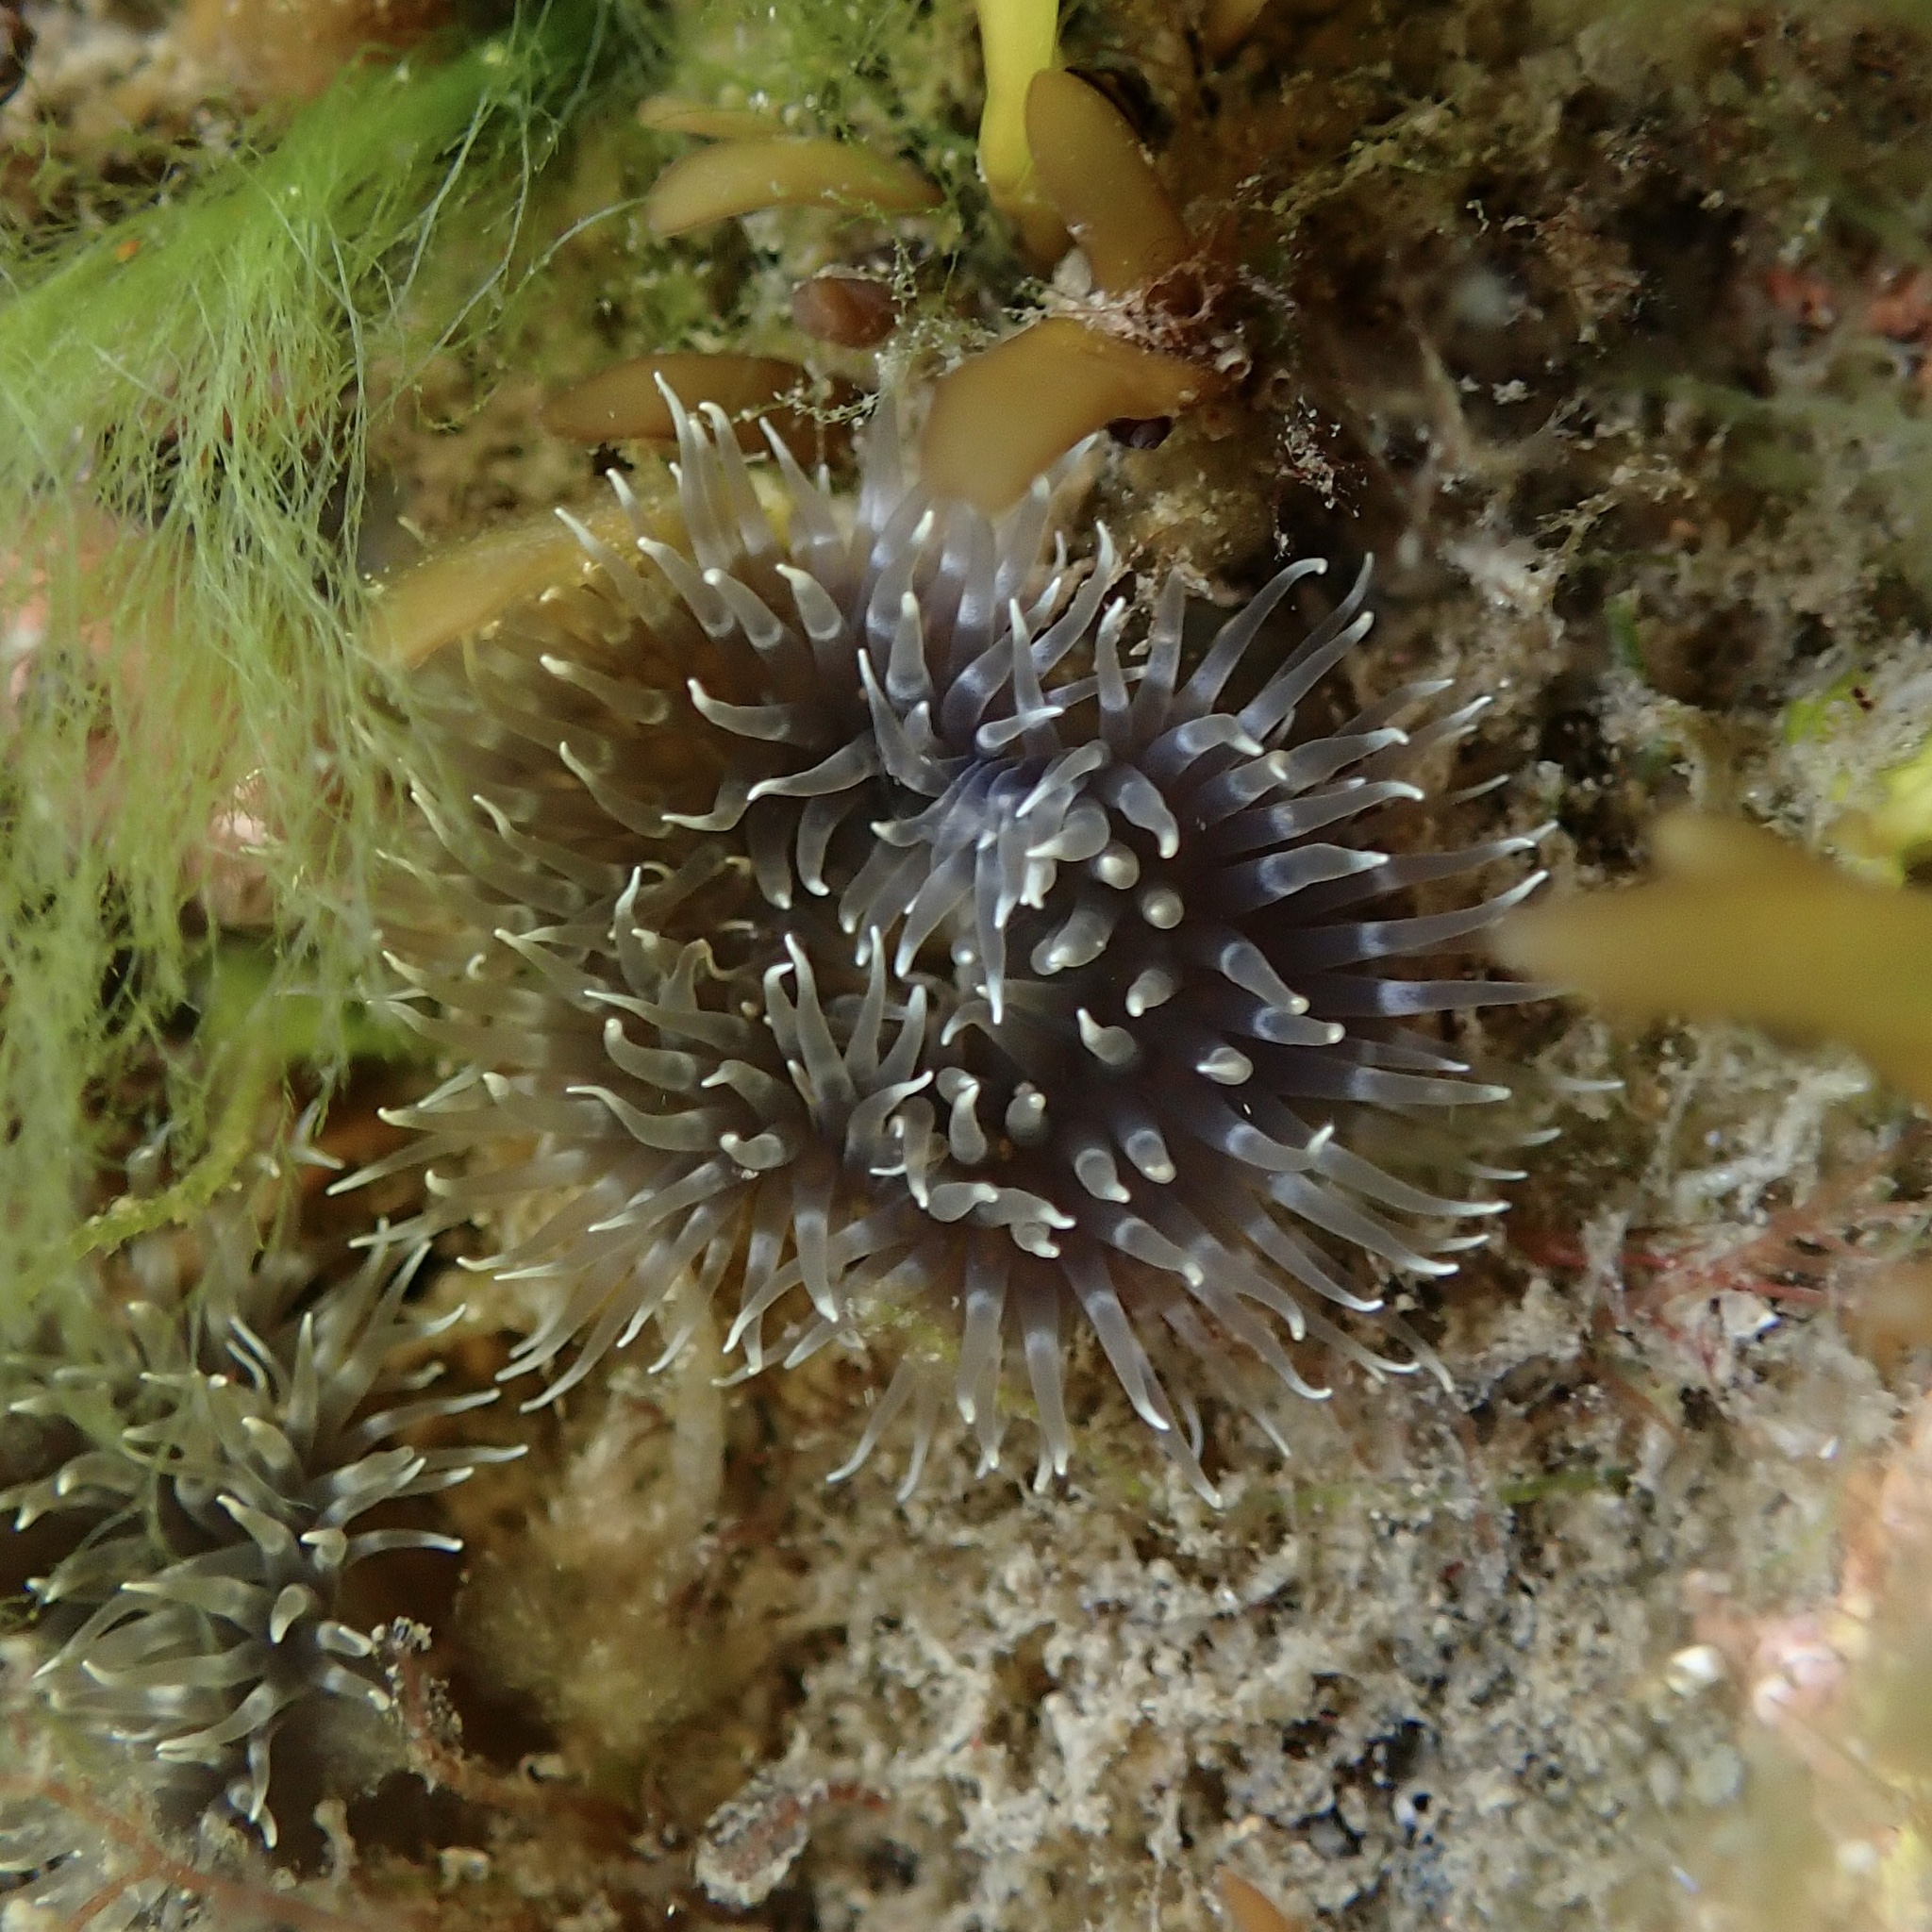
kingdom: Animalia
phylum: Cnidaria
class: Anthozoa
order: Actiniaria
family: Metridiidae
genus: Metridium
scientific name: Metridium senile
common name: Clonal plumose anemone
